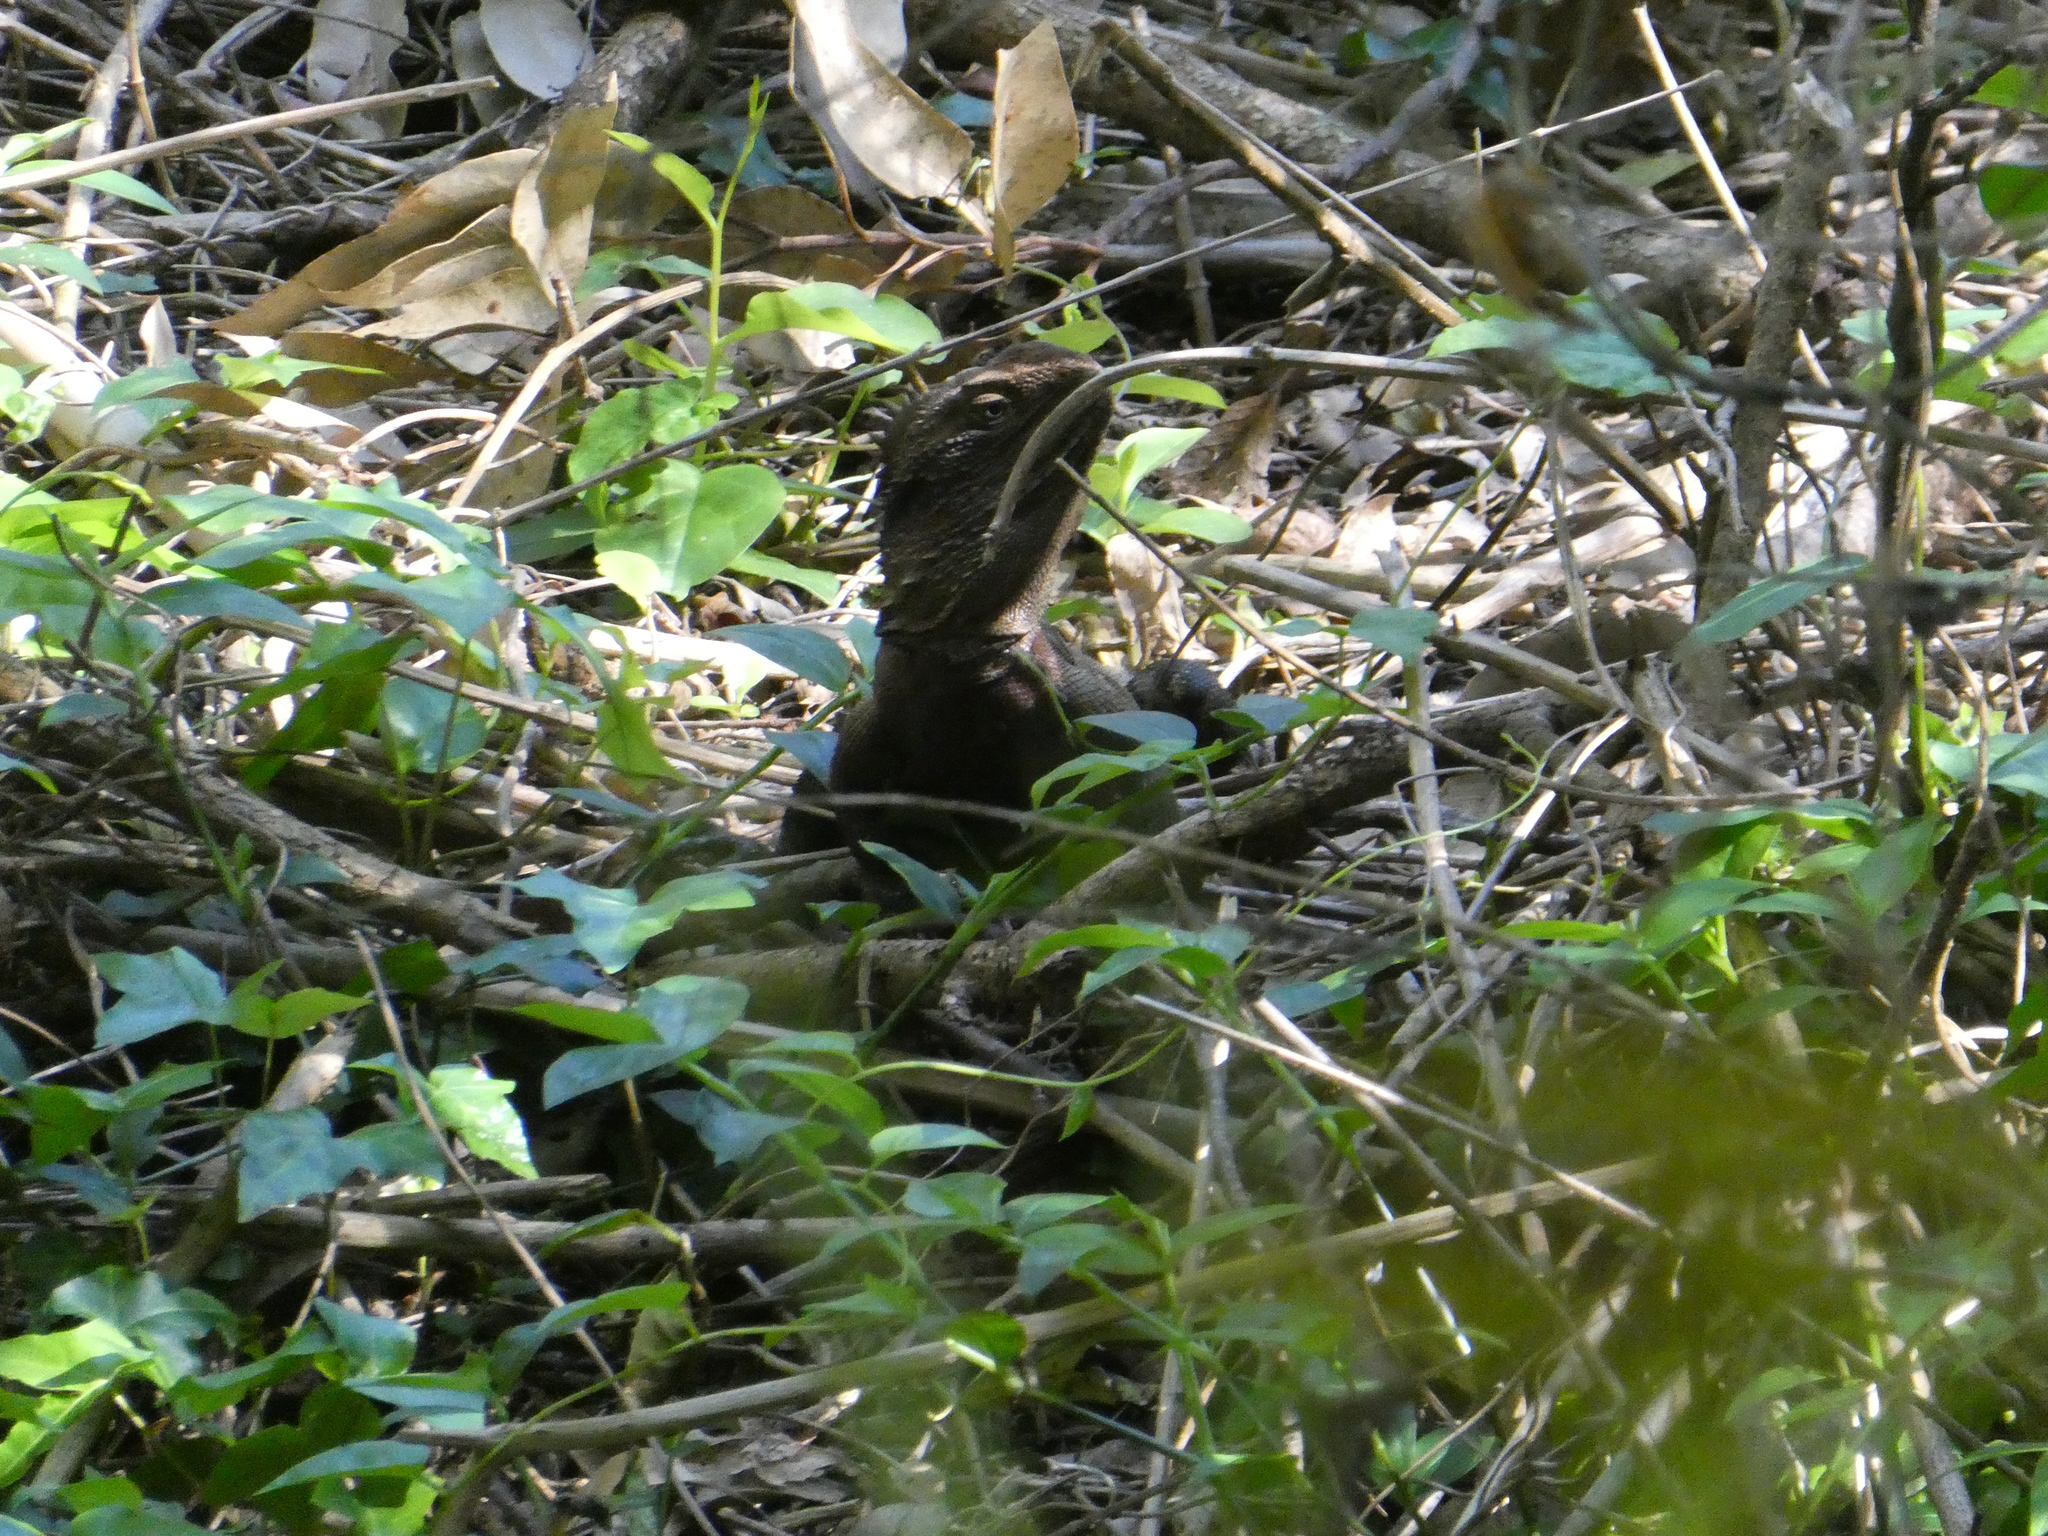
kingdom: Animalia
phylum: Chordata
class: Squamata
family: Agamidae
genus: Intellagama
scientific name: Intellagama lesueurii
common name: Eastern water dragon
